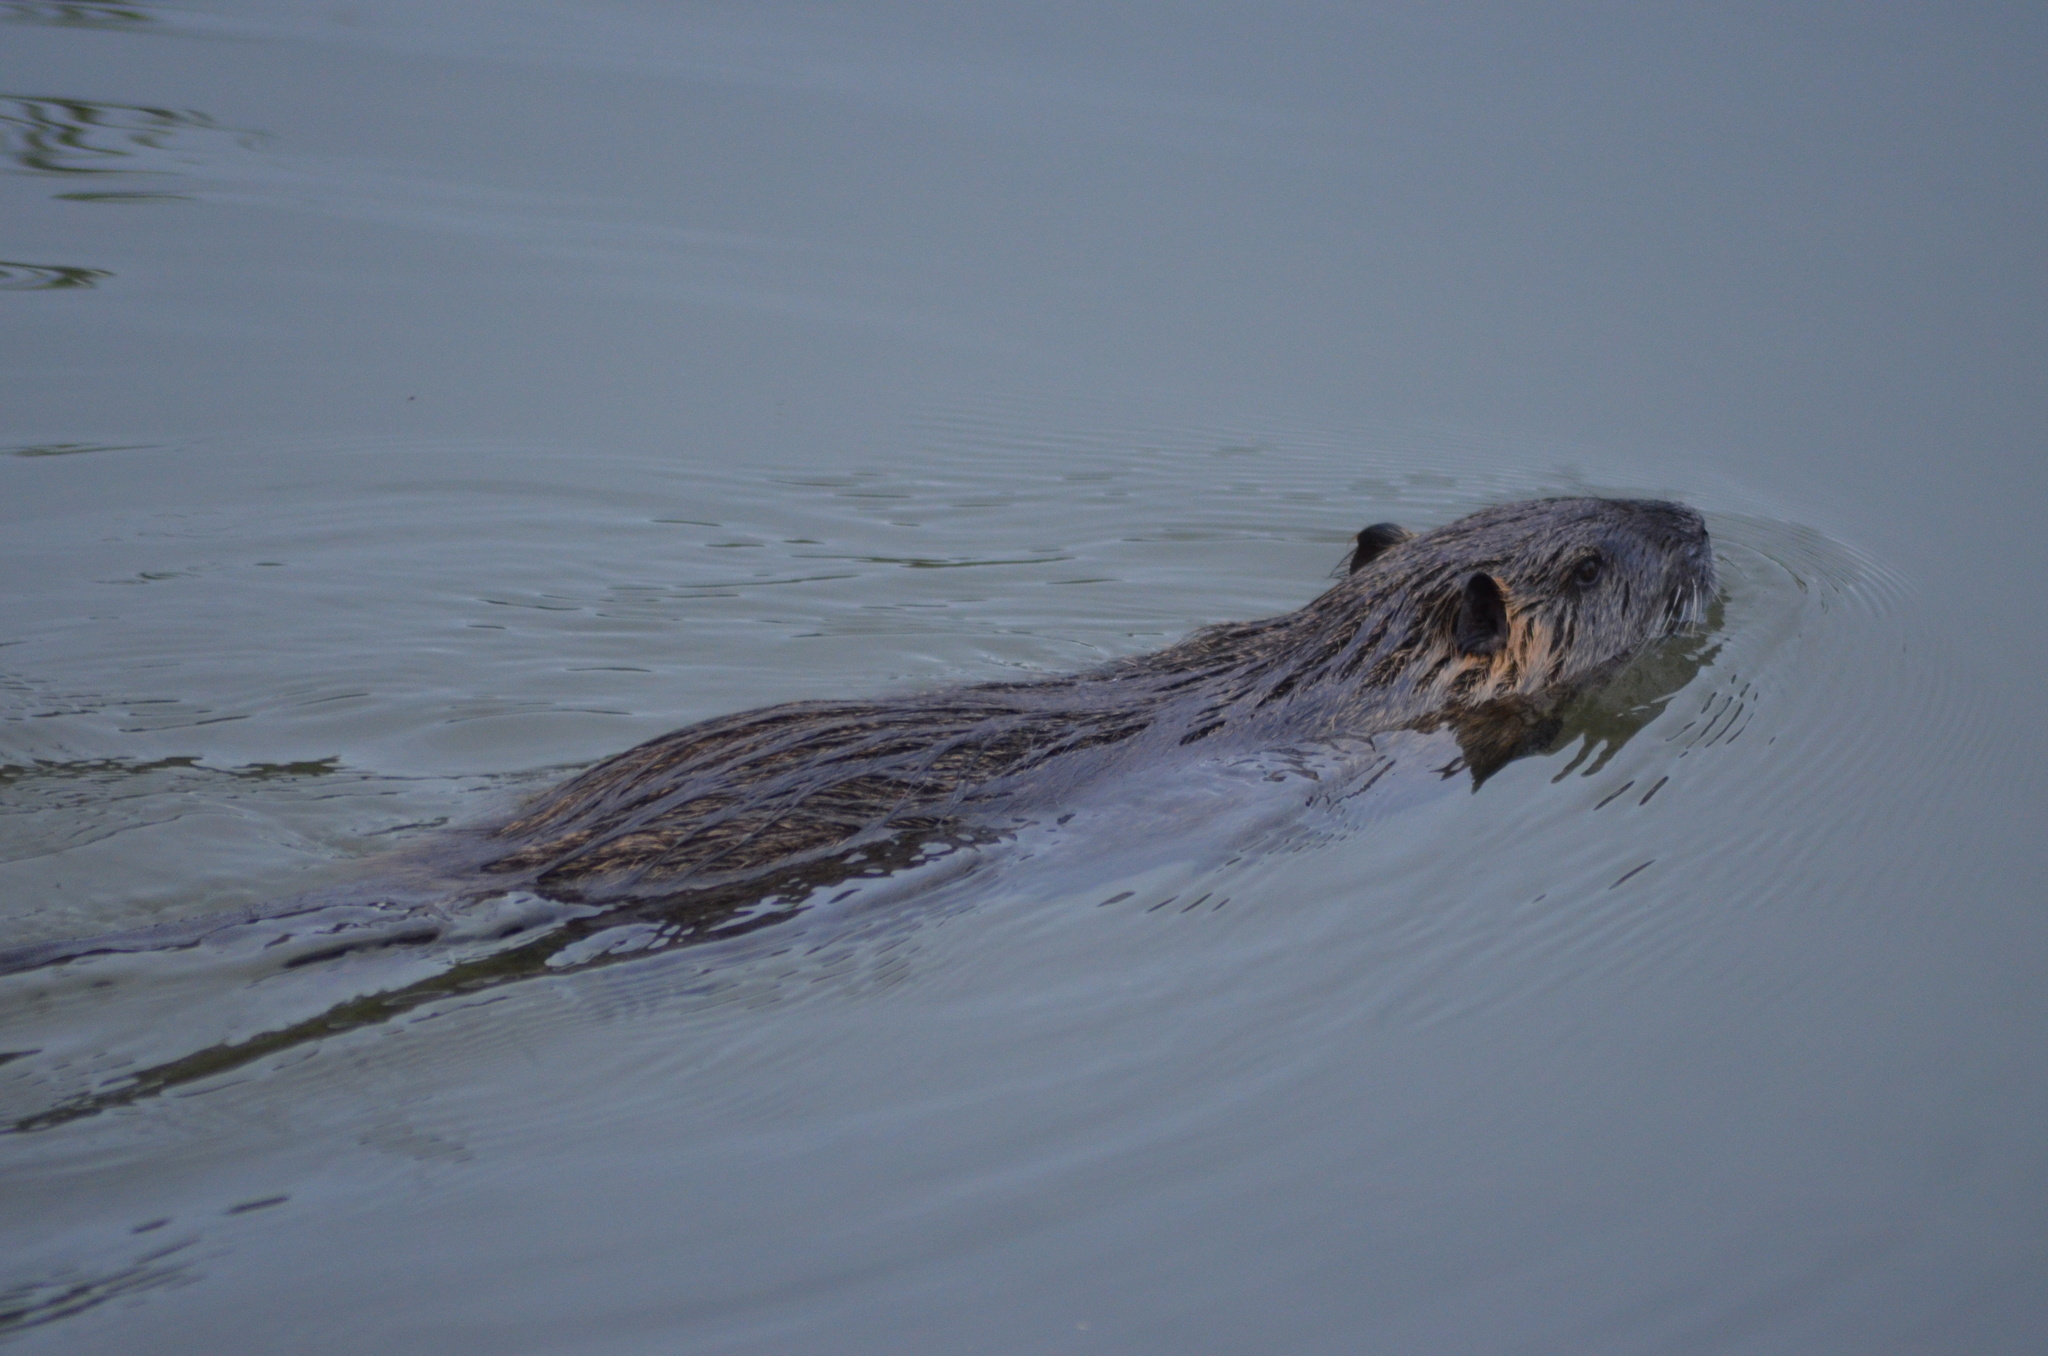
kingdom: Animalia
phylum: Chordata
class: Mammalia
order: Rodentia
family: Myocastoridae
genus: Myocastor
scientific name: Myocastor coypus
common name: Coypu
